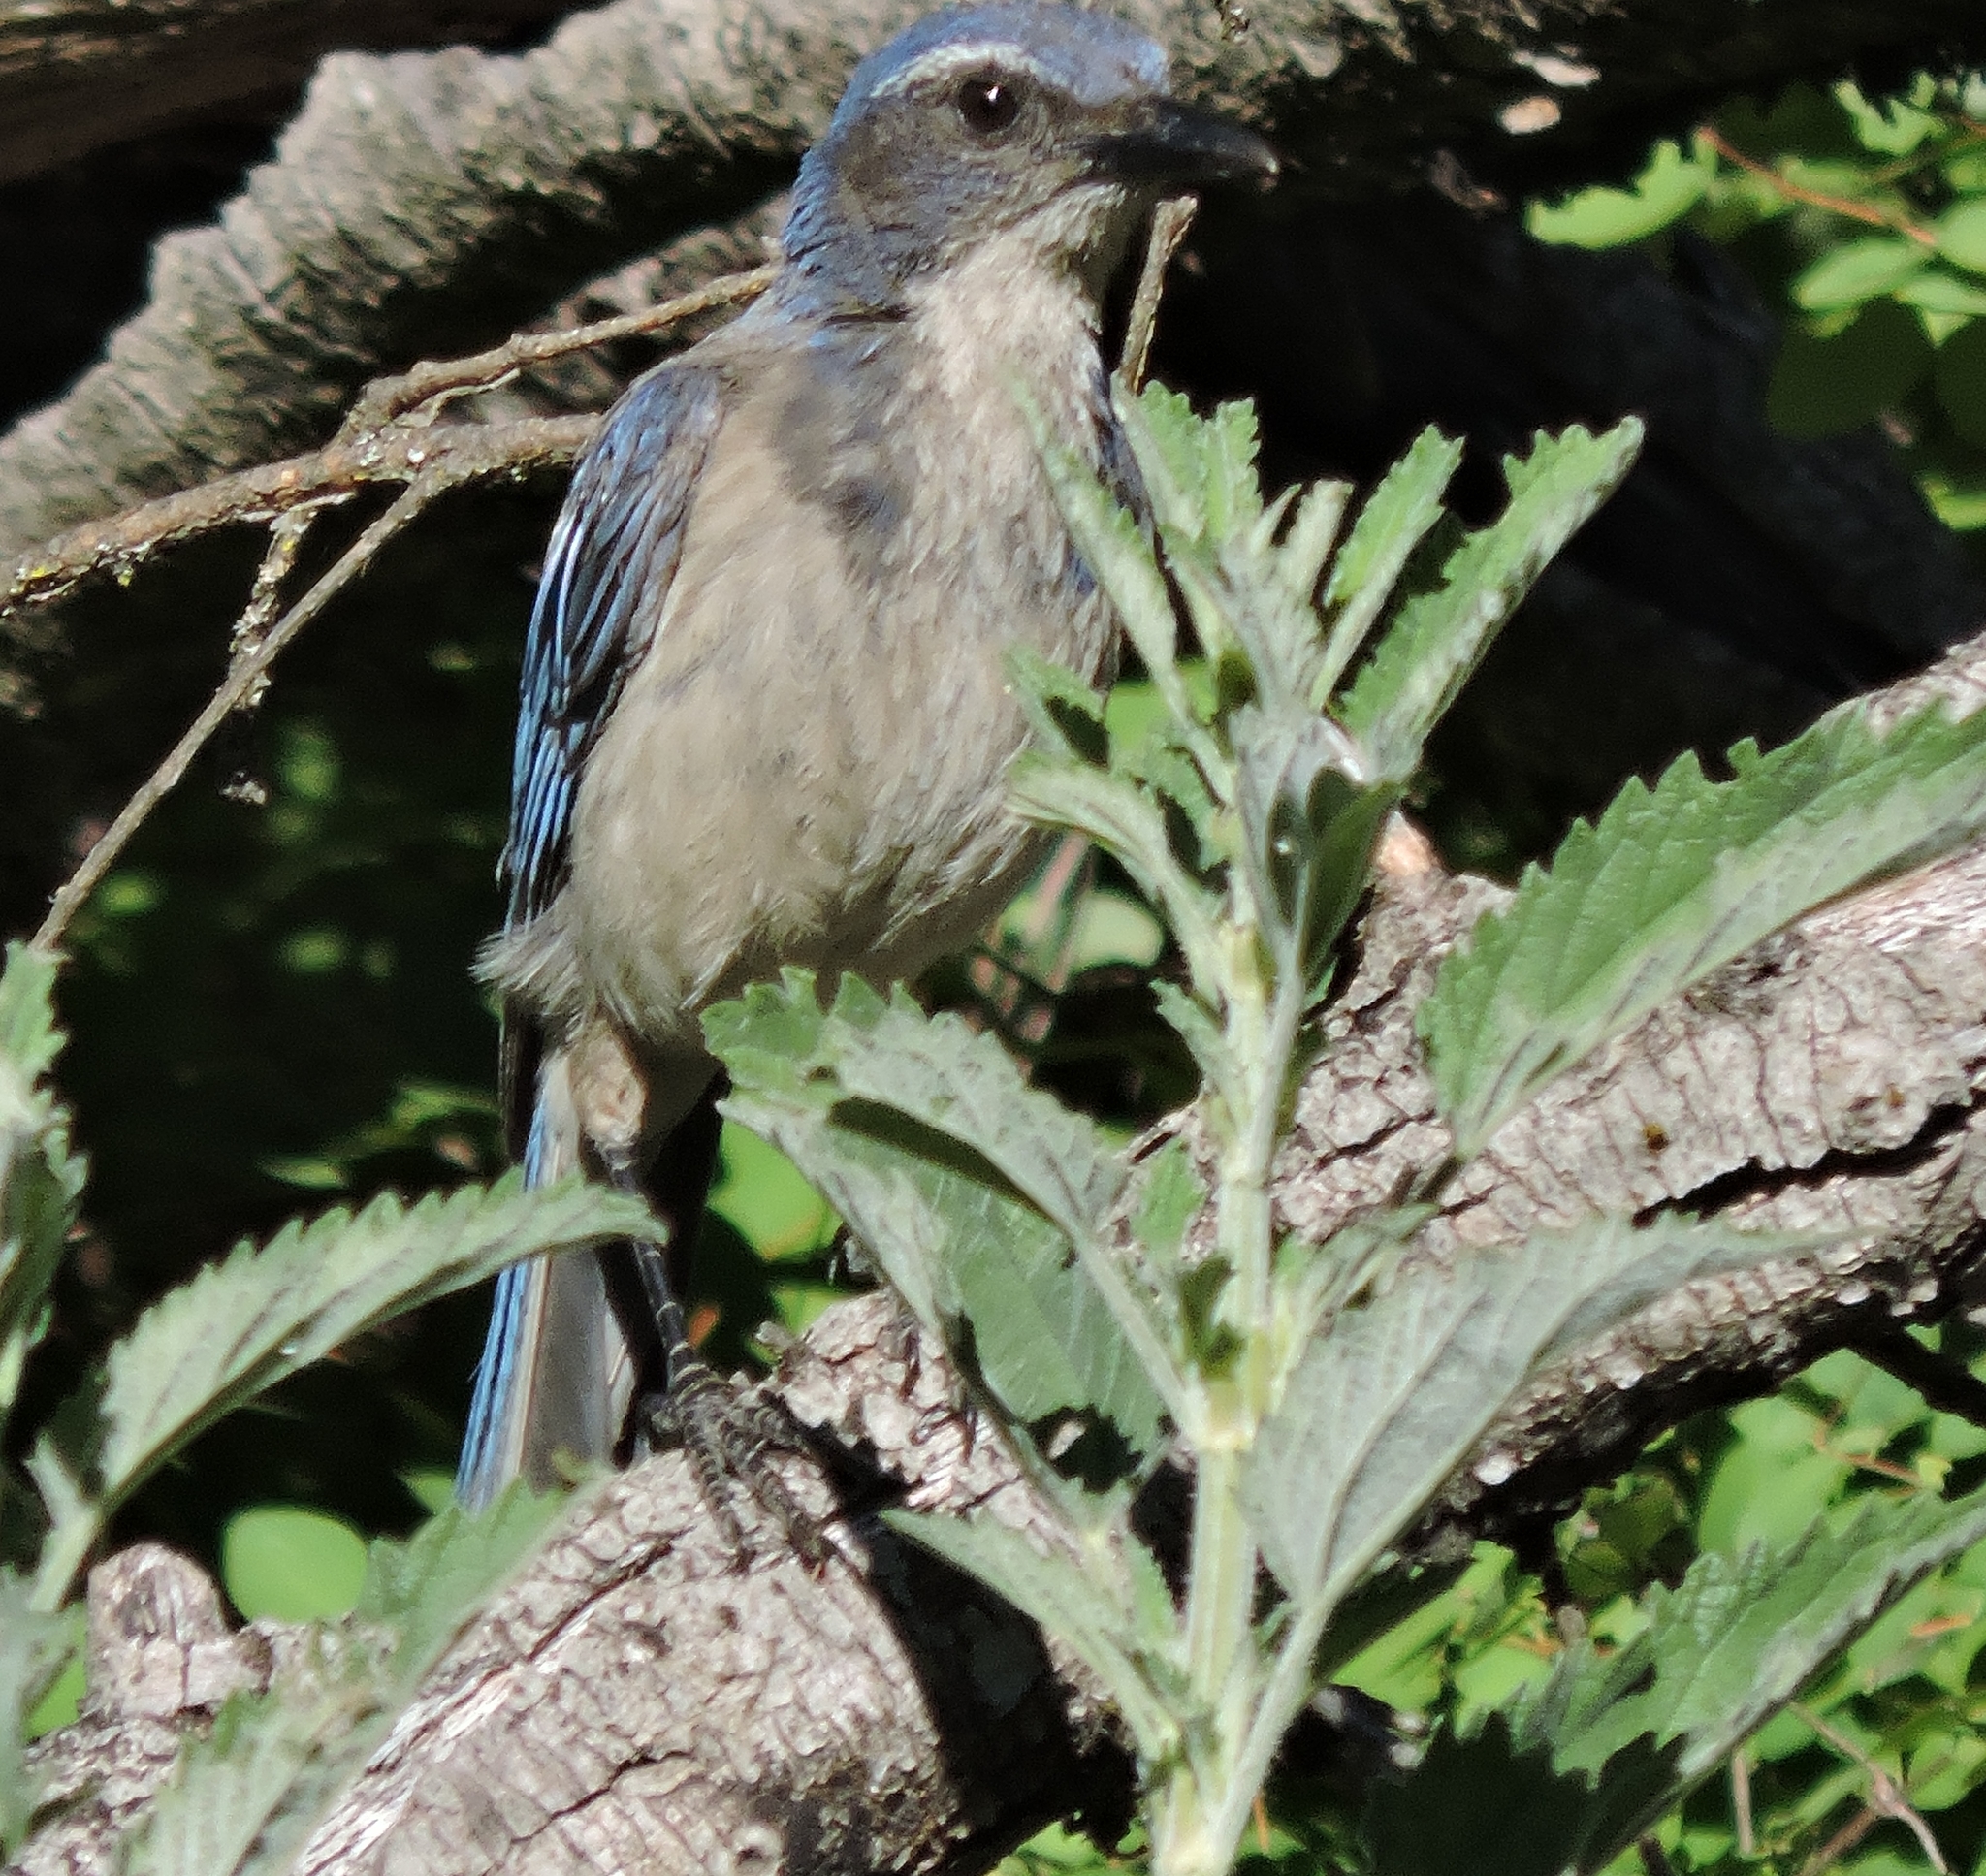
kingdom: Animalia
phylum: Chordata
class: Aves
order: Passeriformes
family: Corvidae
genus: Aphelocoma
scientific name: Aphelocoma californica
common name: California scrub-jay
